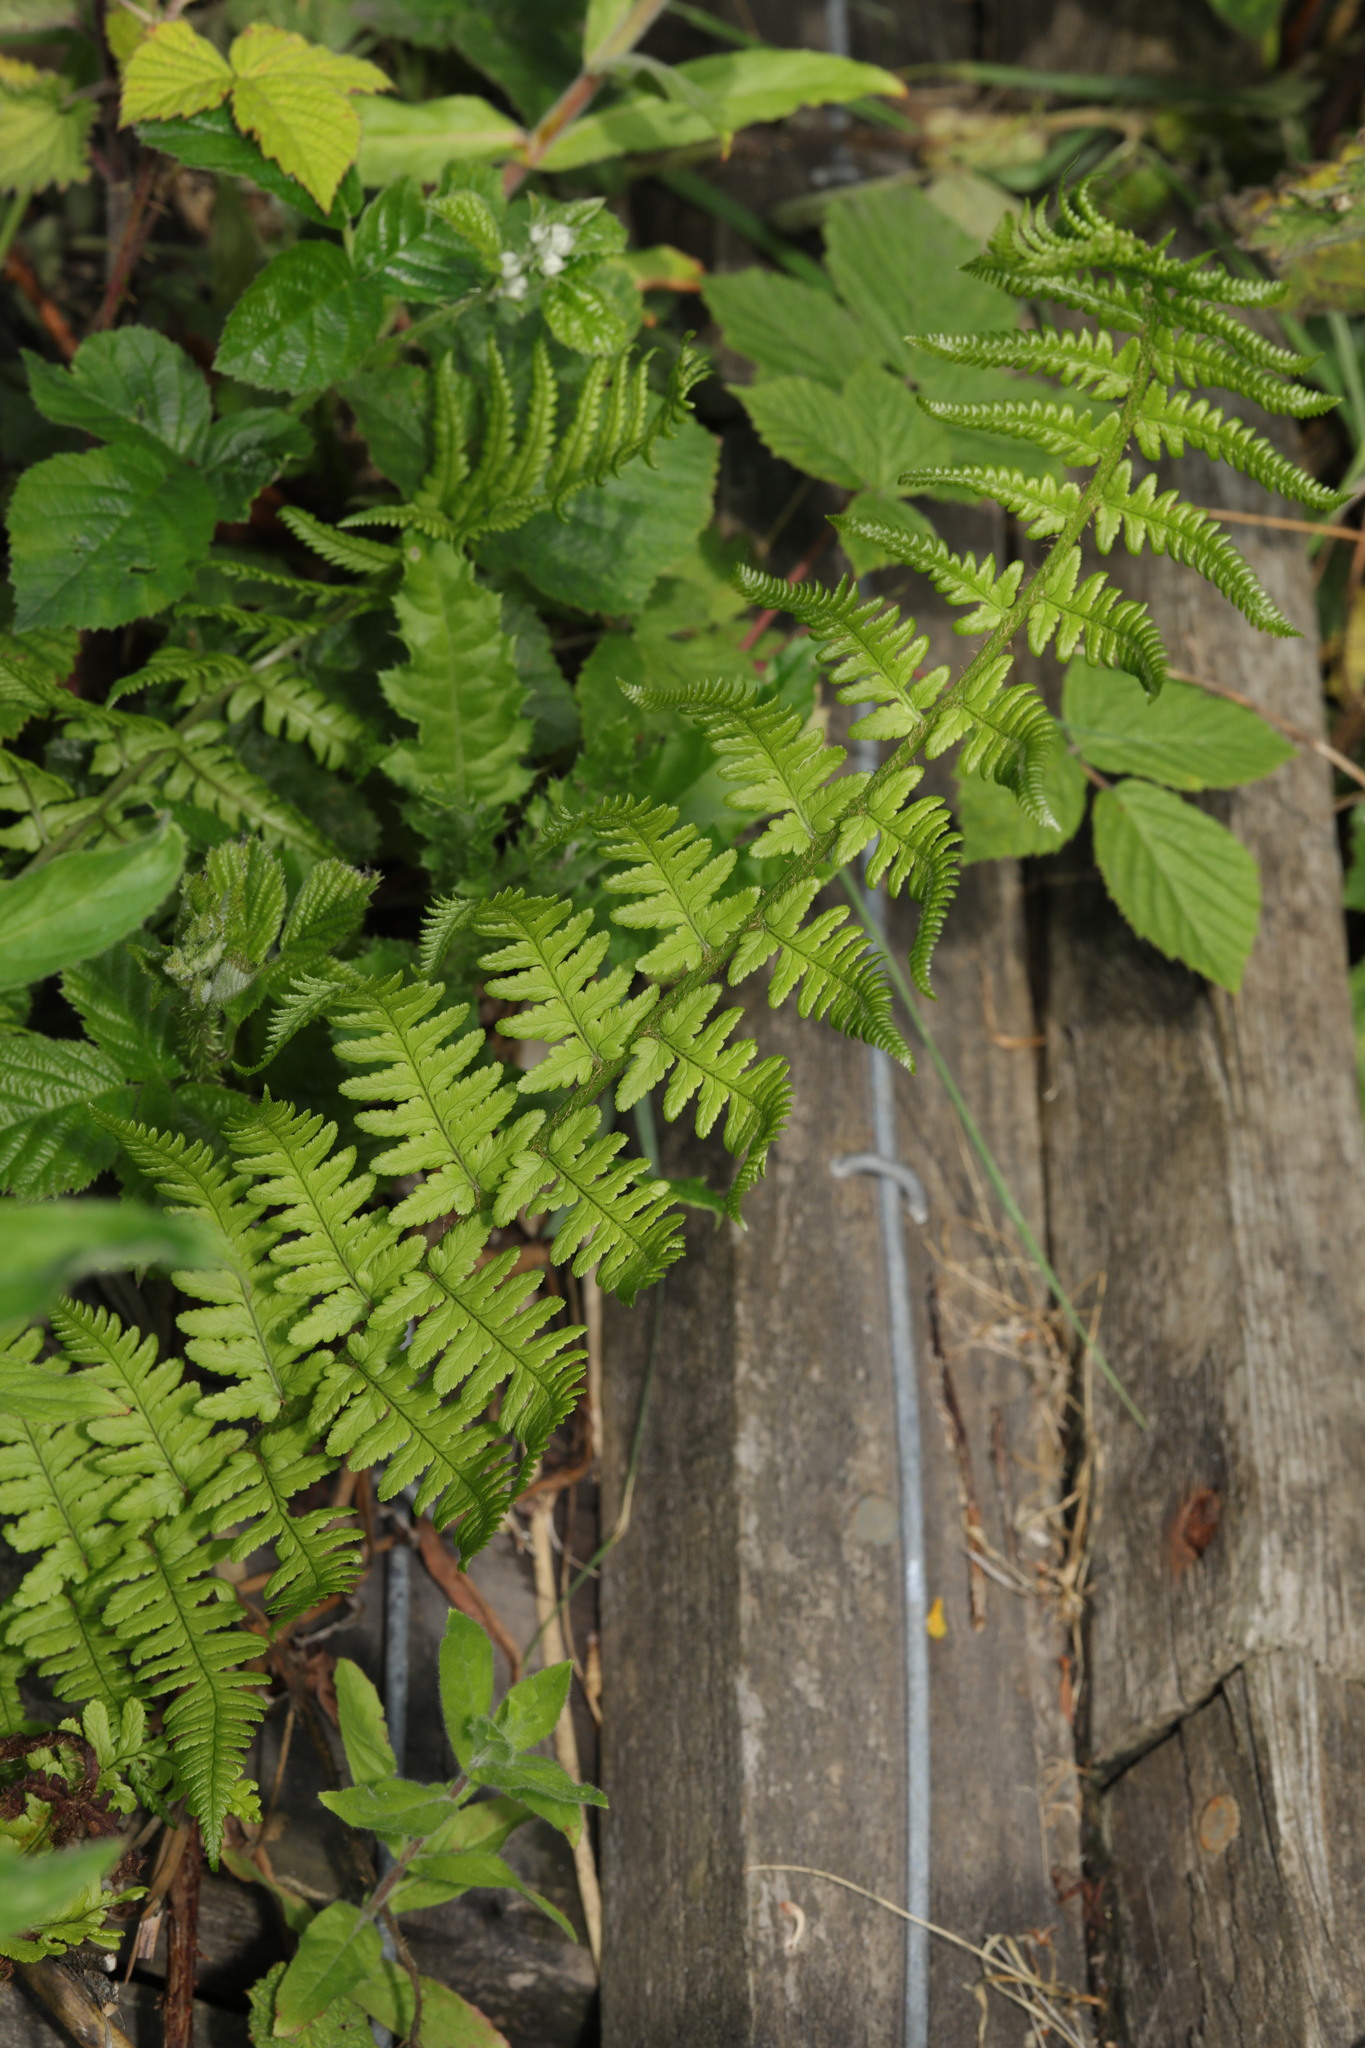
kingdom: Plantae
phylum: Tracheophyta
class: Polypodiopsida
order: Polypodiales
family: Dryopteridaceae
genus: Dryopteris
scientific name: Dryopteris filix-mas
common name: Male fern
